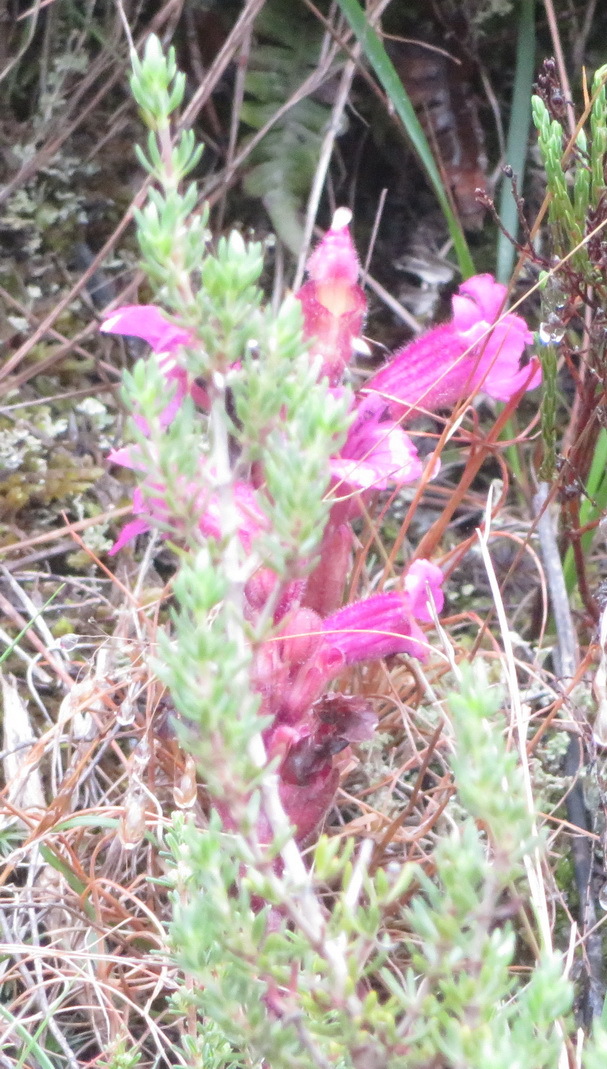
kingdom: Plantae
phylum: Tracheophyta
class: Magnoliopsida
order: Lamiales
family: Orobanchaceae
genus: Harveya
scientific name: Harveya purpurea
